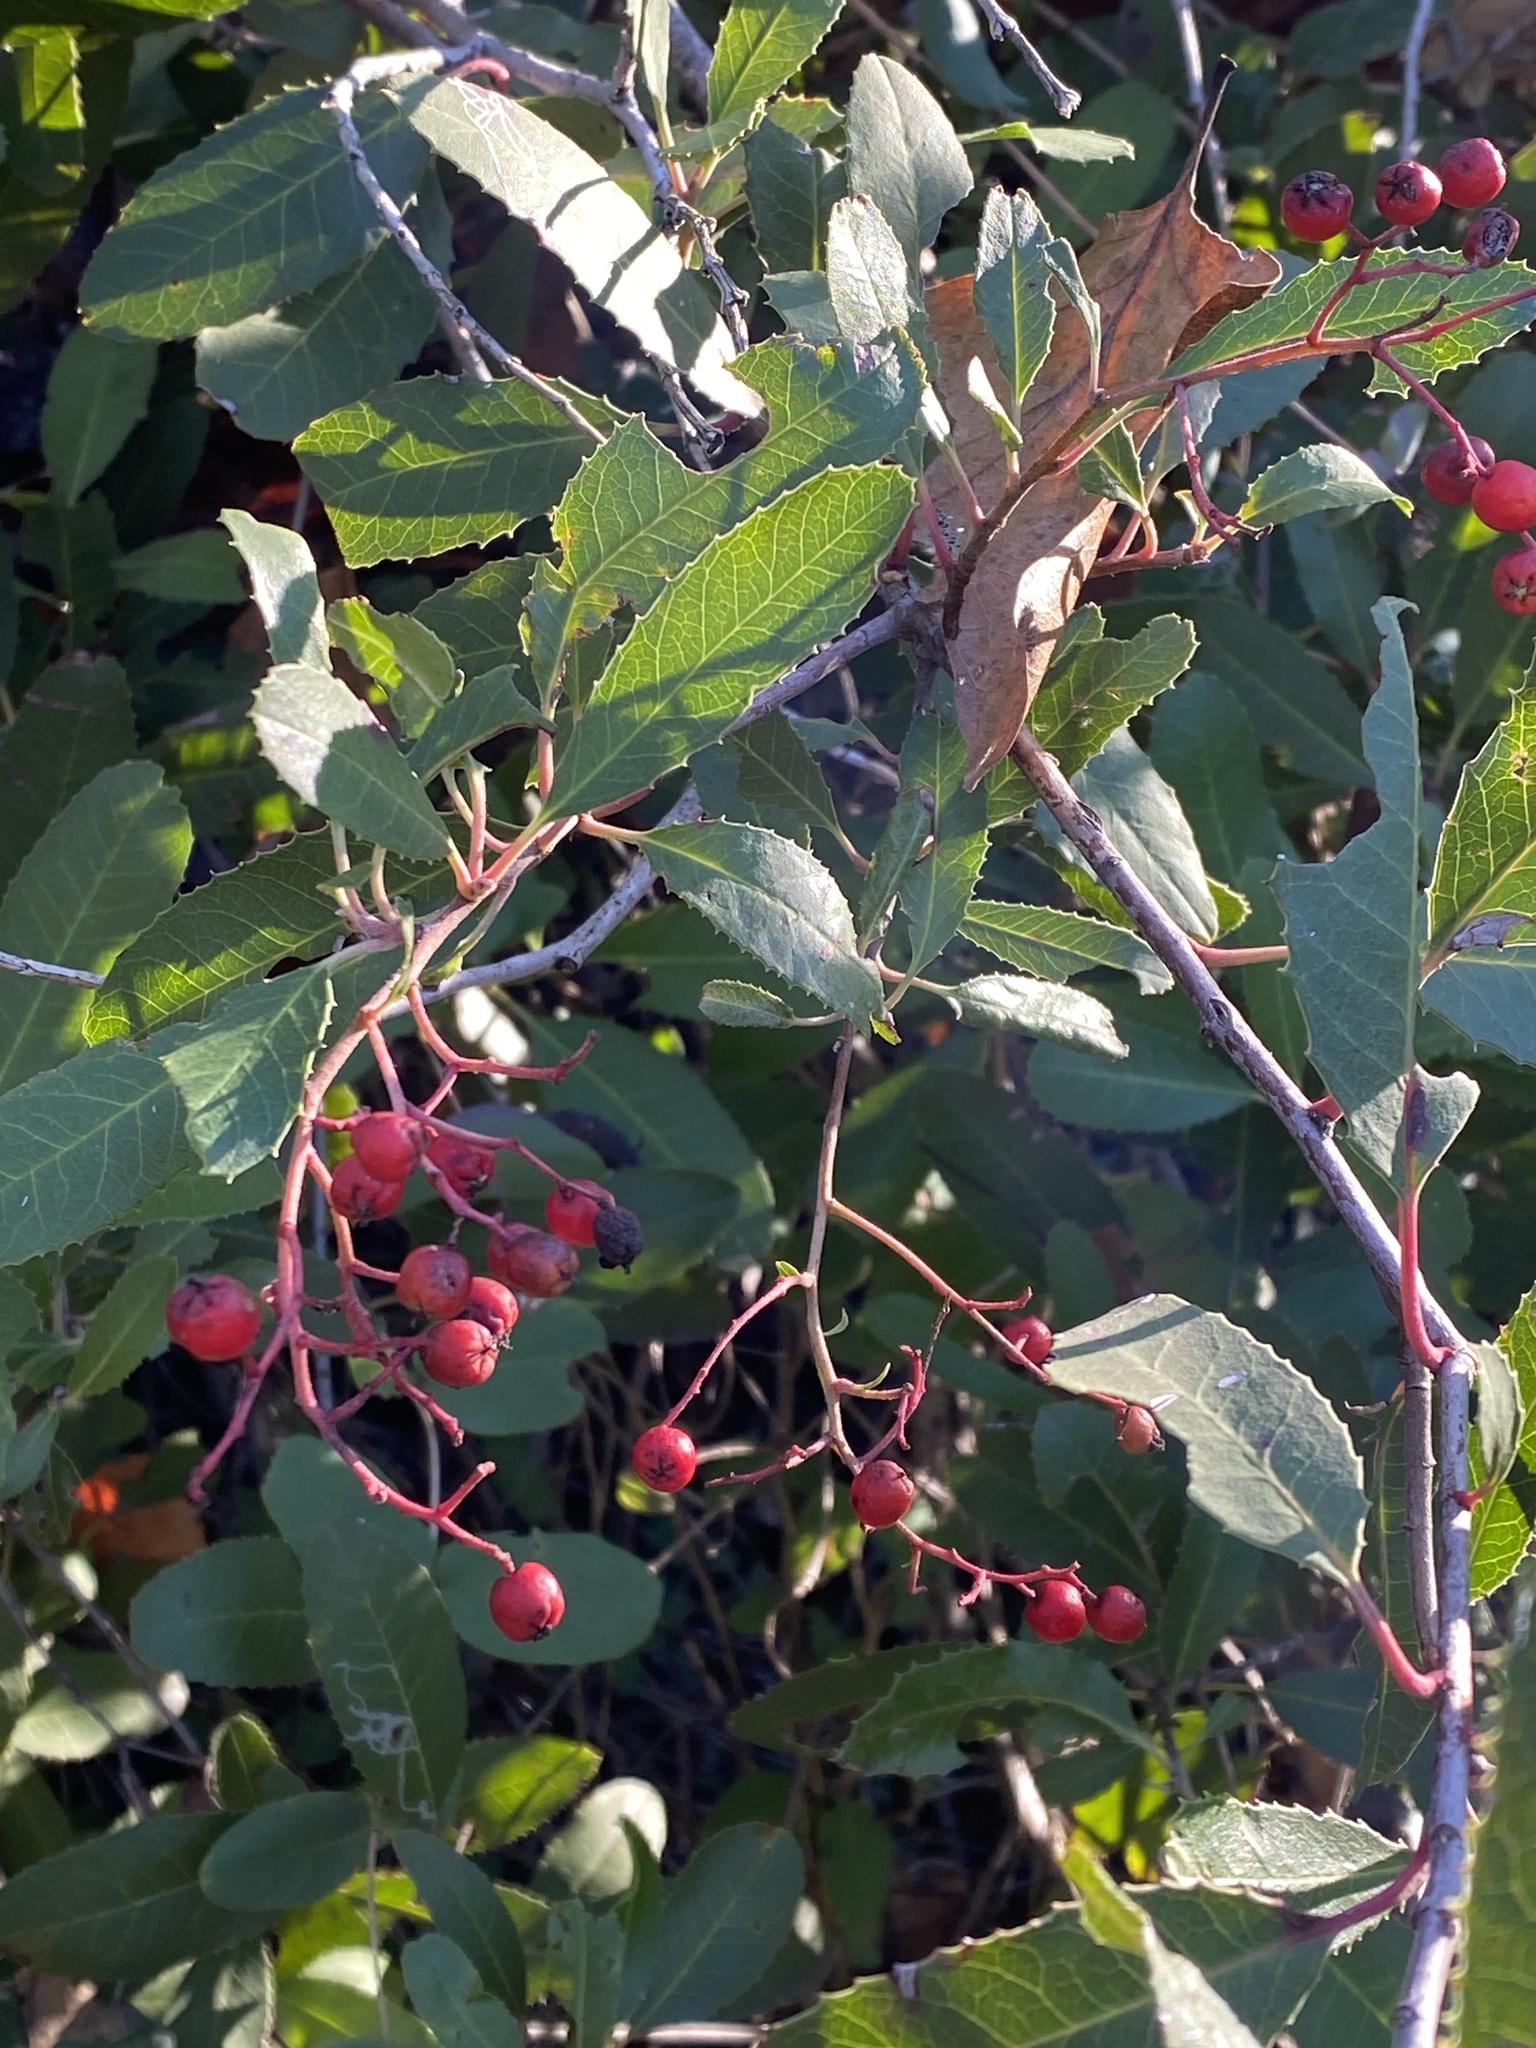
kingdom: Plantae
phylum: Tracheophyta
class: Magnoliopsida
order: Rosales
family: Rosaceae
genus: Heteromeles
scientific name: Heteromeles arbutifolia
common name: California-holly
